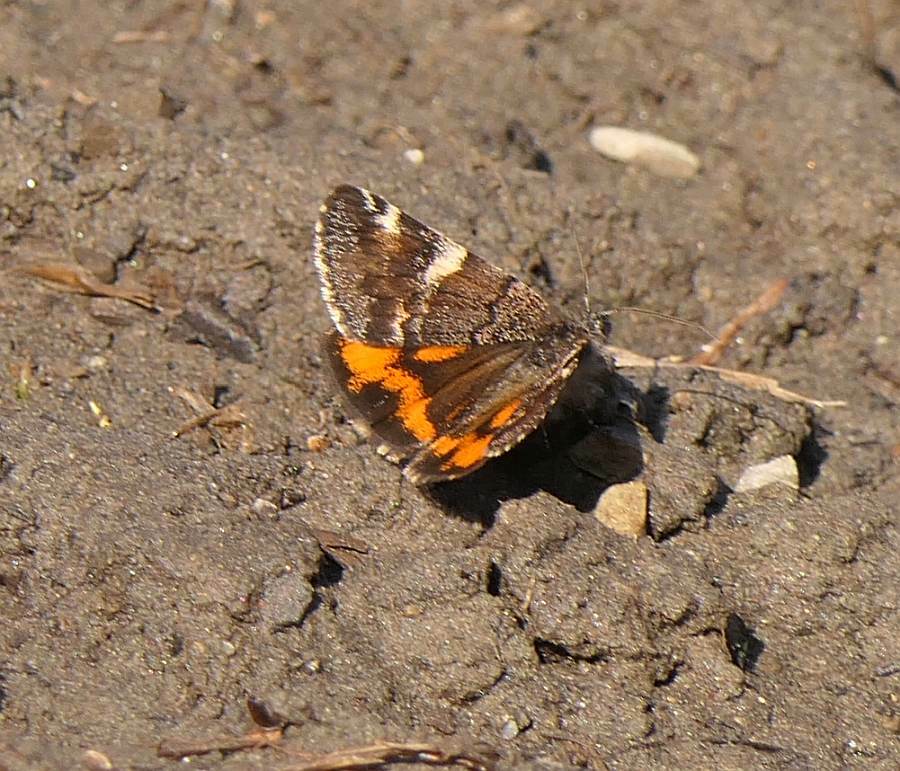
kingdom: Animalia
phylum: Arthropoda
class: Insecta
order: Lepidoptera
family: Geometridae
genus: Archiearis
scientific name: Archiearis infans
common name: First born geometer
